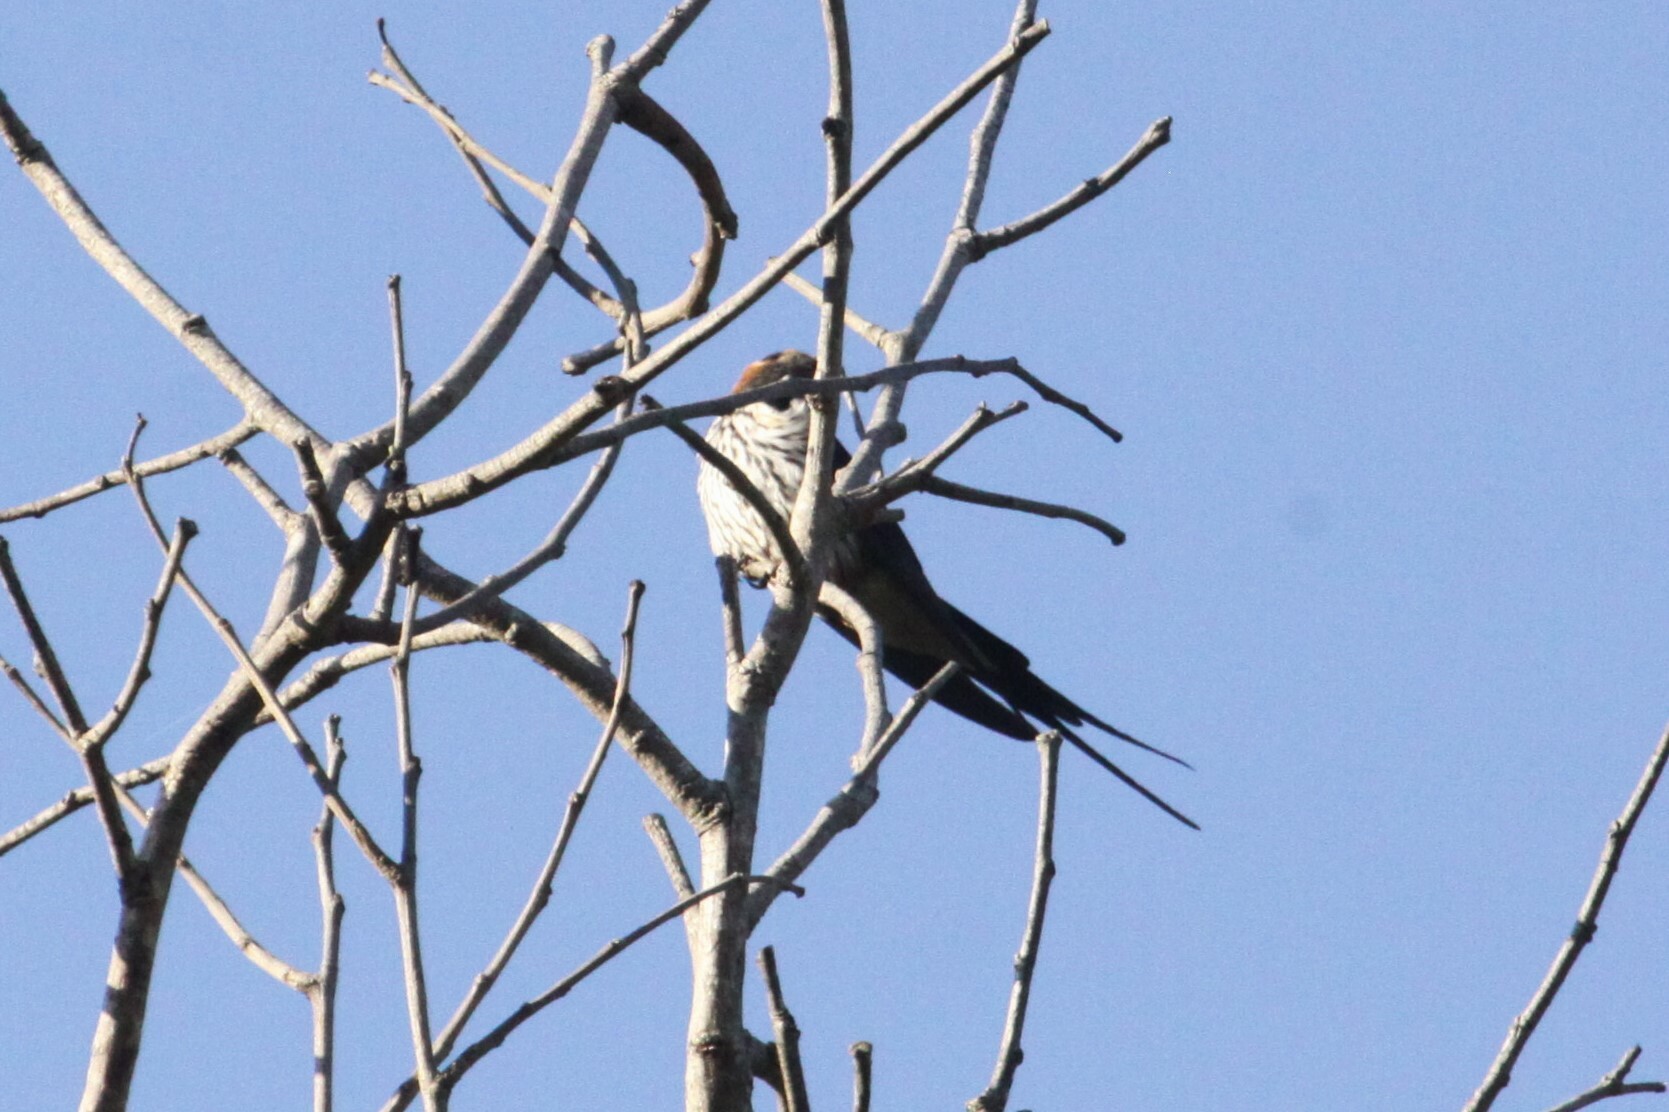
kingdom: Animalia
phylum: Chordata
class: Aves
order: Passeriformes
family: Hirundinidae
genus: Cecropis
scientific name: Cecropis abyssinica
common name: Lesser striped-swallow
